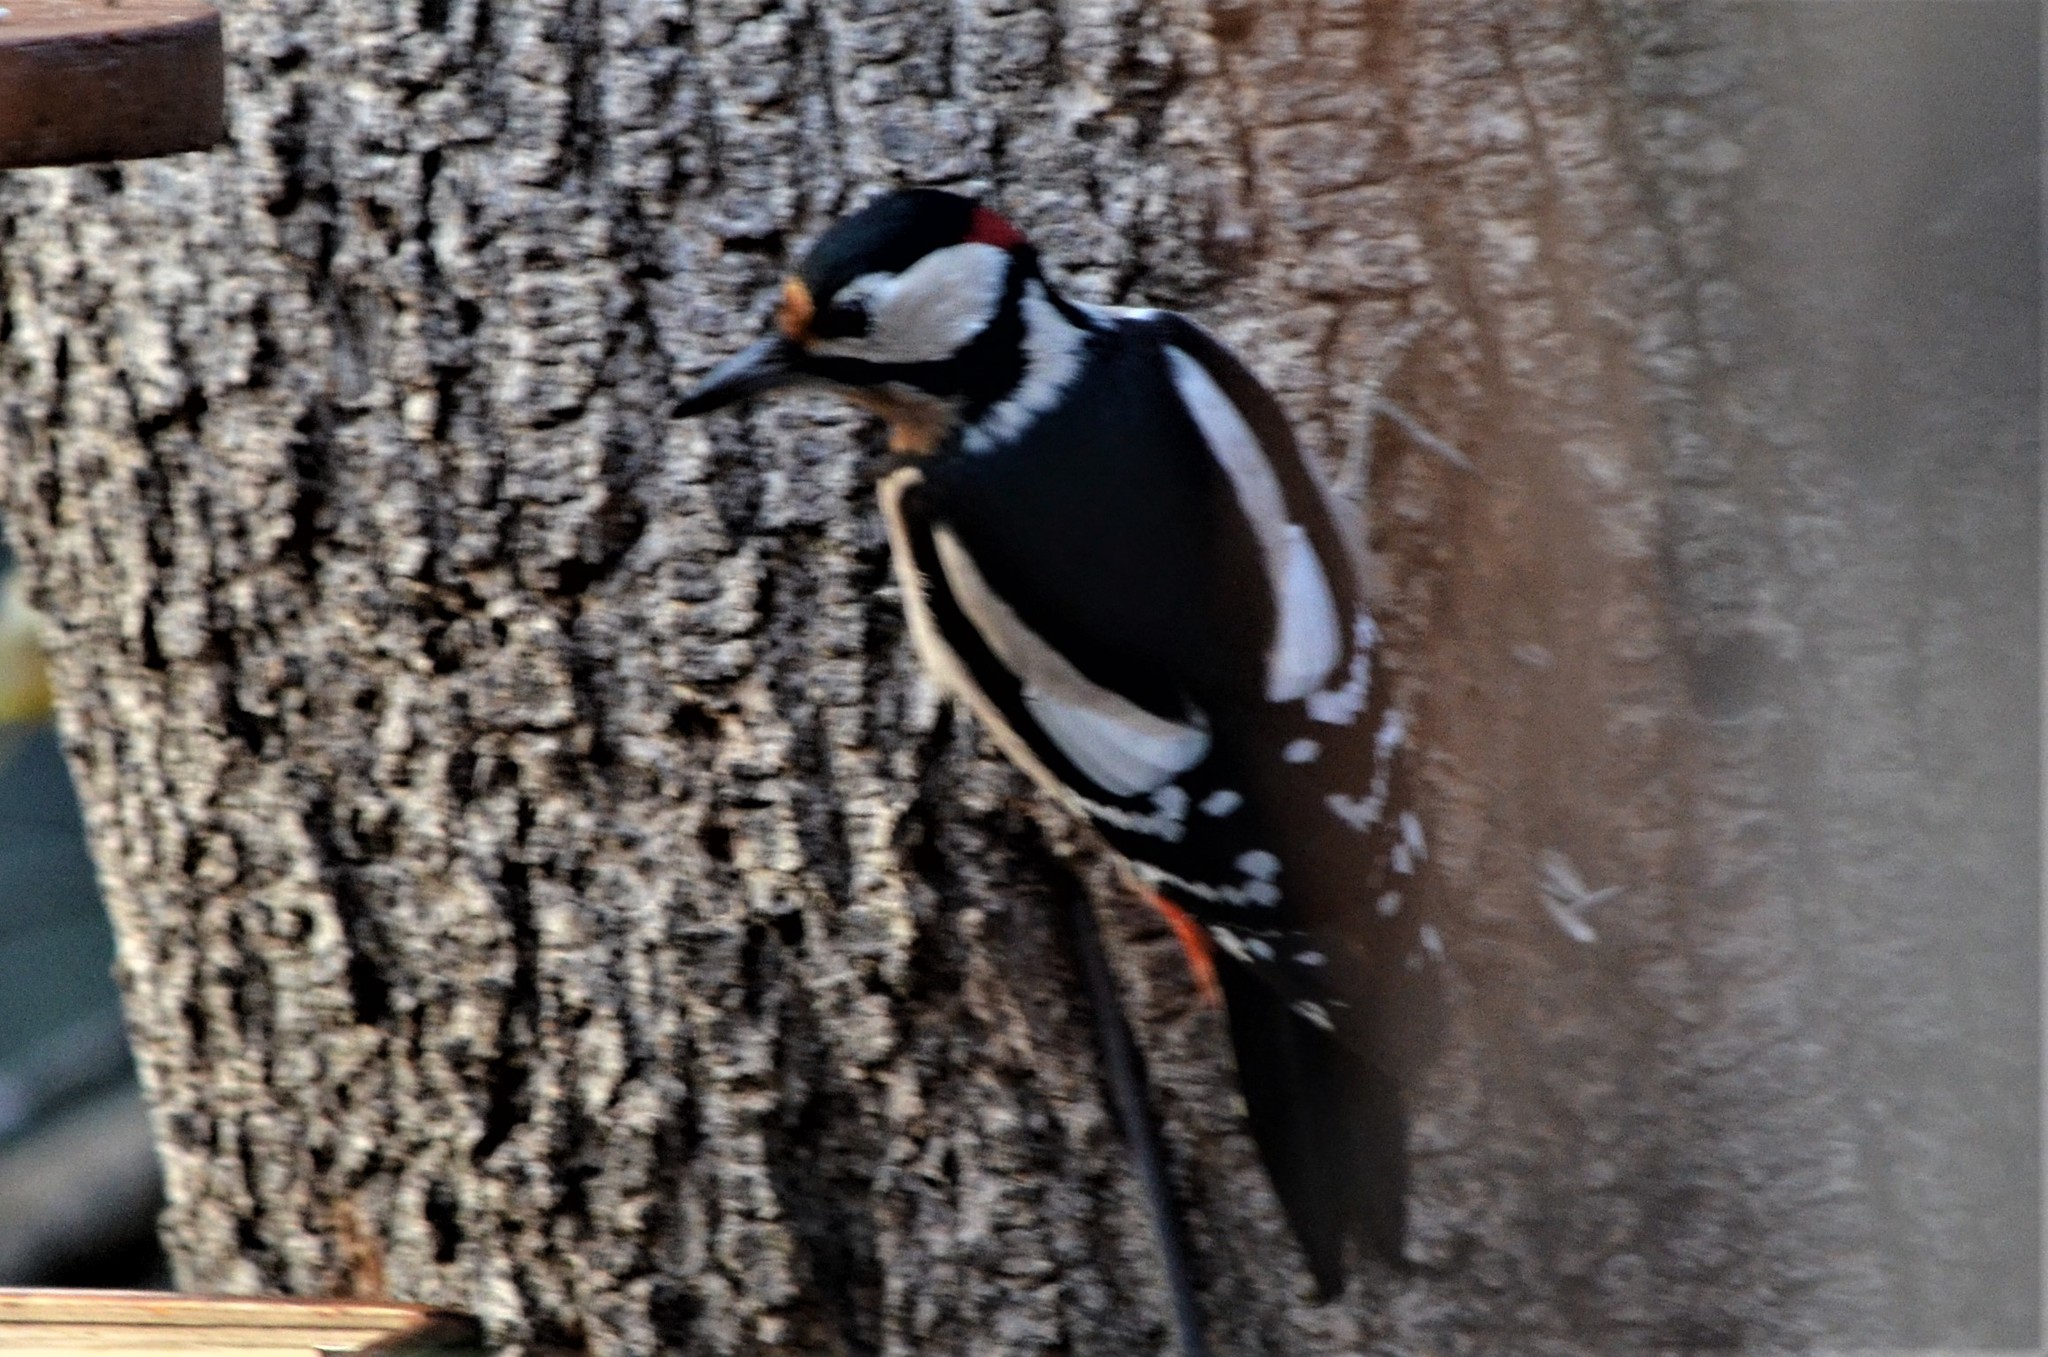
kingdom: Animalia
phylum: Chordata
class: Aves
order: Piciformes
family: Picidae
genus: Dendrocopos
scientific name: Dendrocopos major
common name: Great spotted woodpecker
